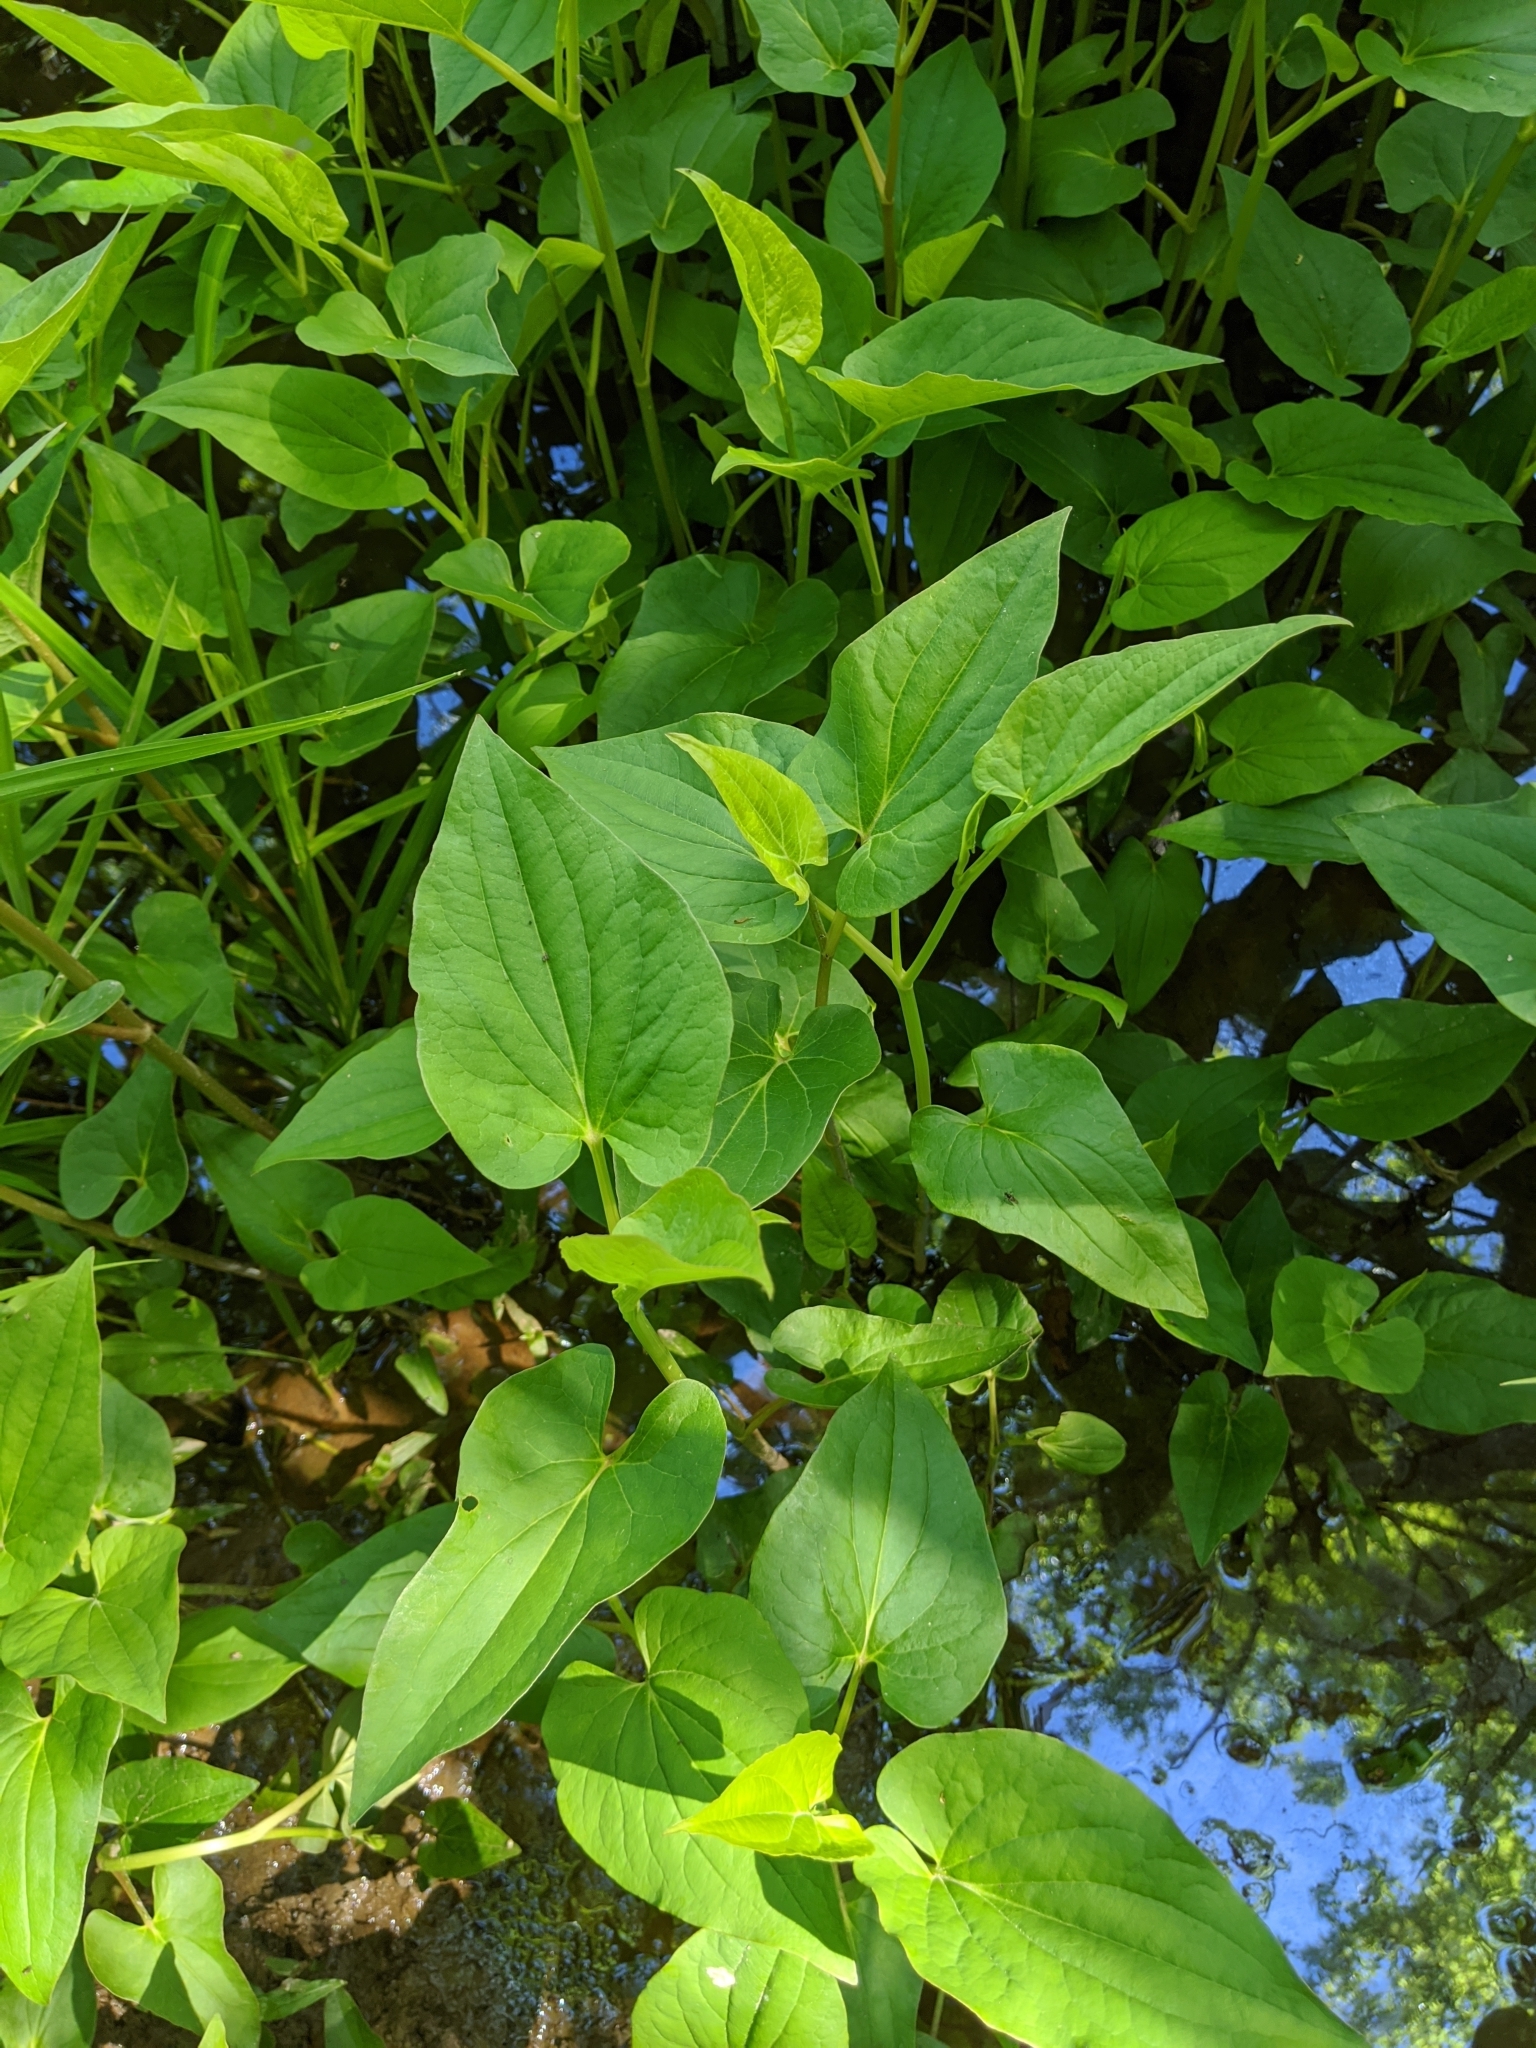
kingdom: Plantae
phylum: Tracheophyta
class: Magnoliopsida
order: Piperales
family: Saururaceae
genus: Saururus
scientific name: Saururus cernuus
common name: Lizard's-tail
